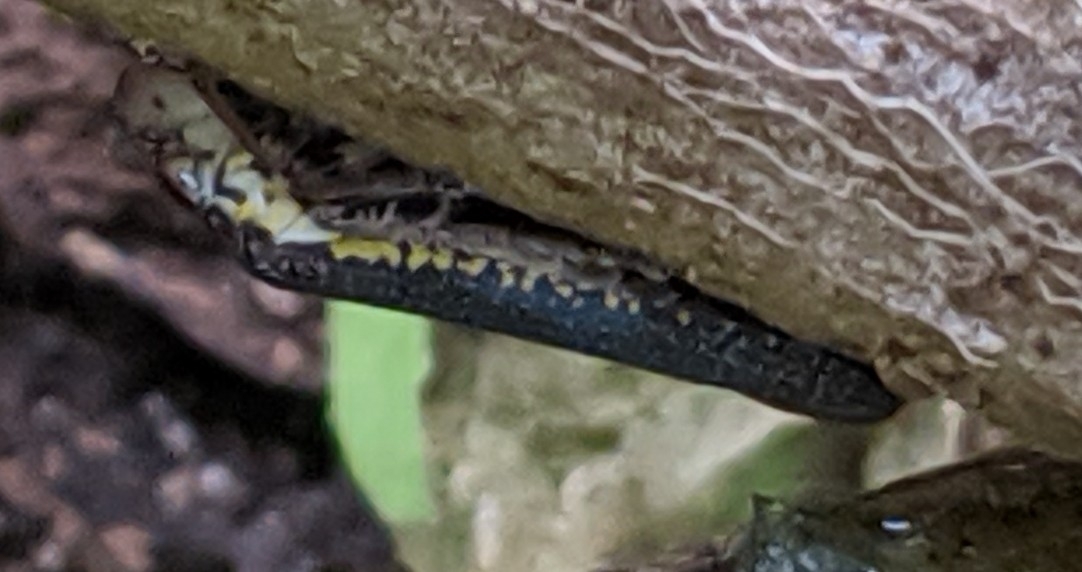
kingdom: Animalia
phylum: Arthropoda
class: Insecta
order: Hemiptera
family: Cicadellidae
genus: Paraulacizes
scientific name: Paraulacizes irrorata
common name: Speckled sharpshooter
